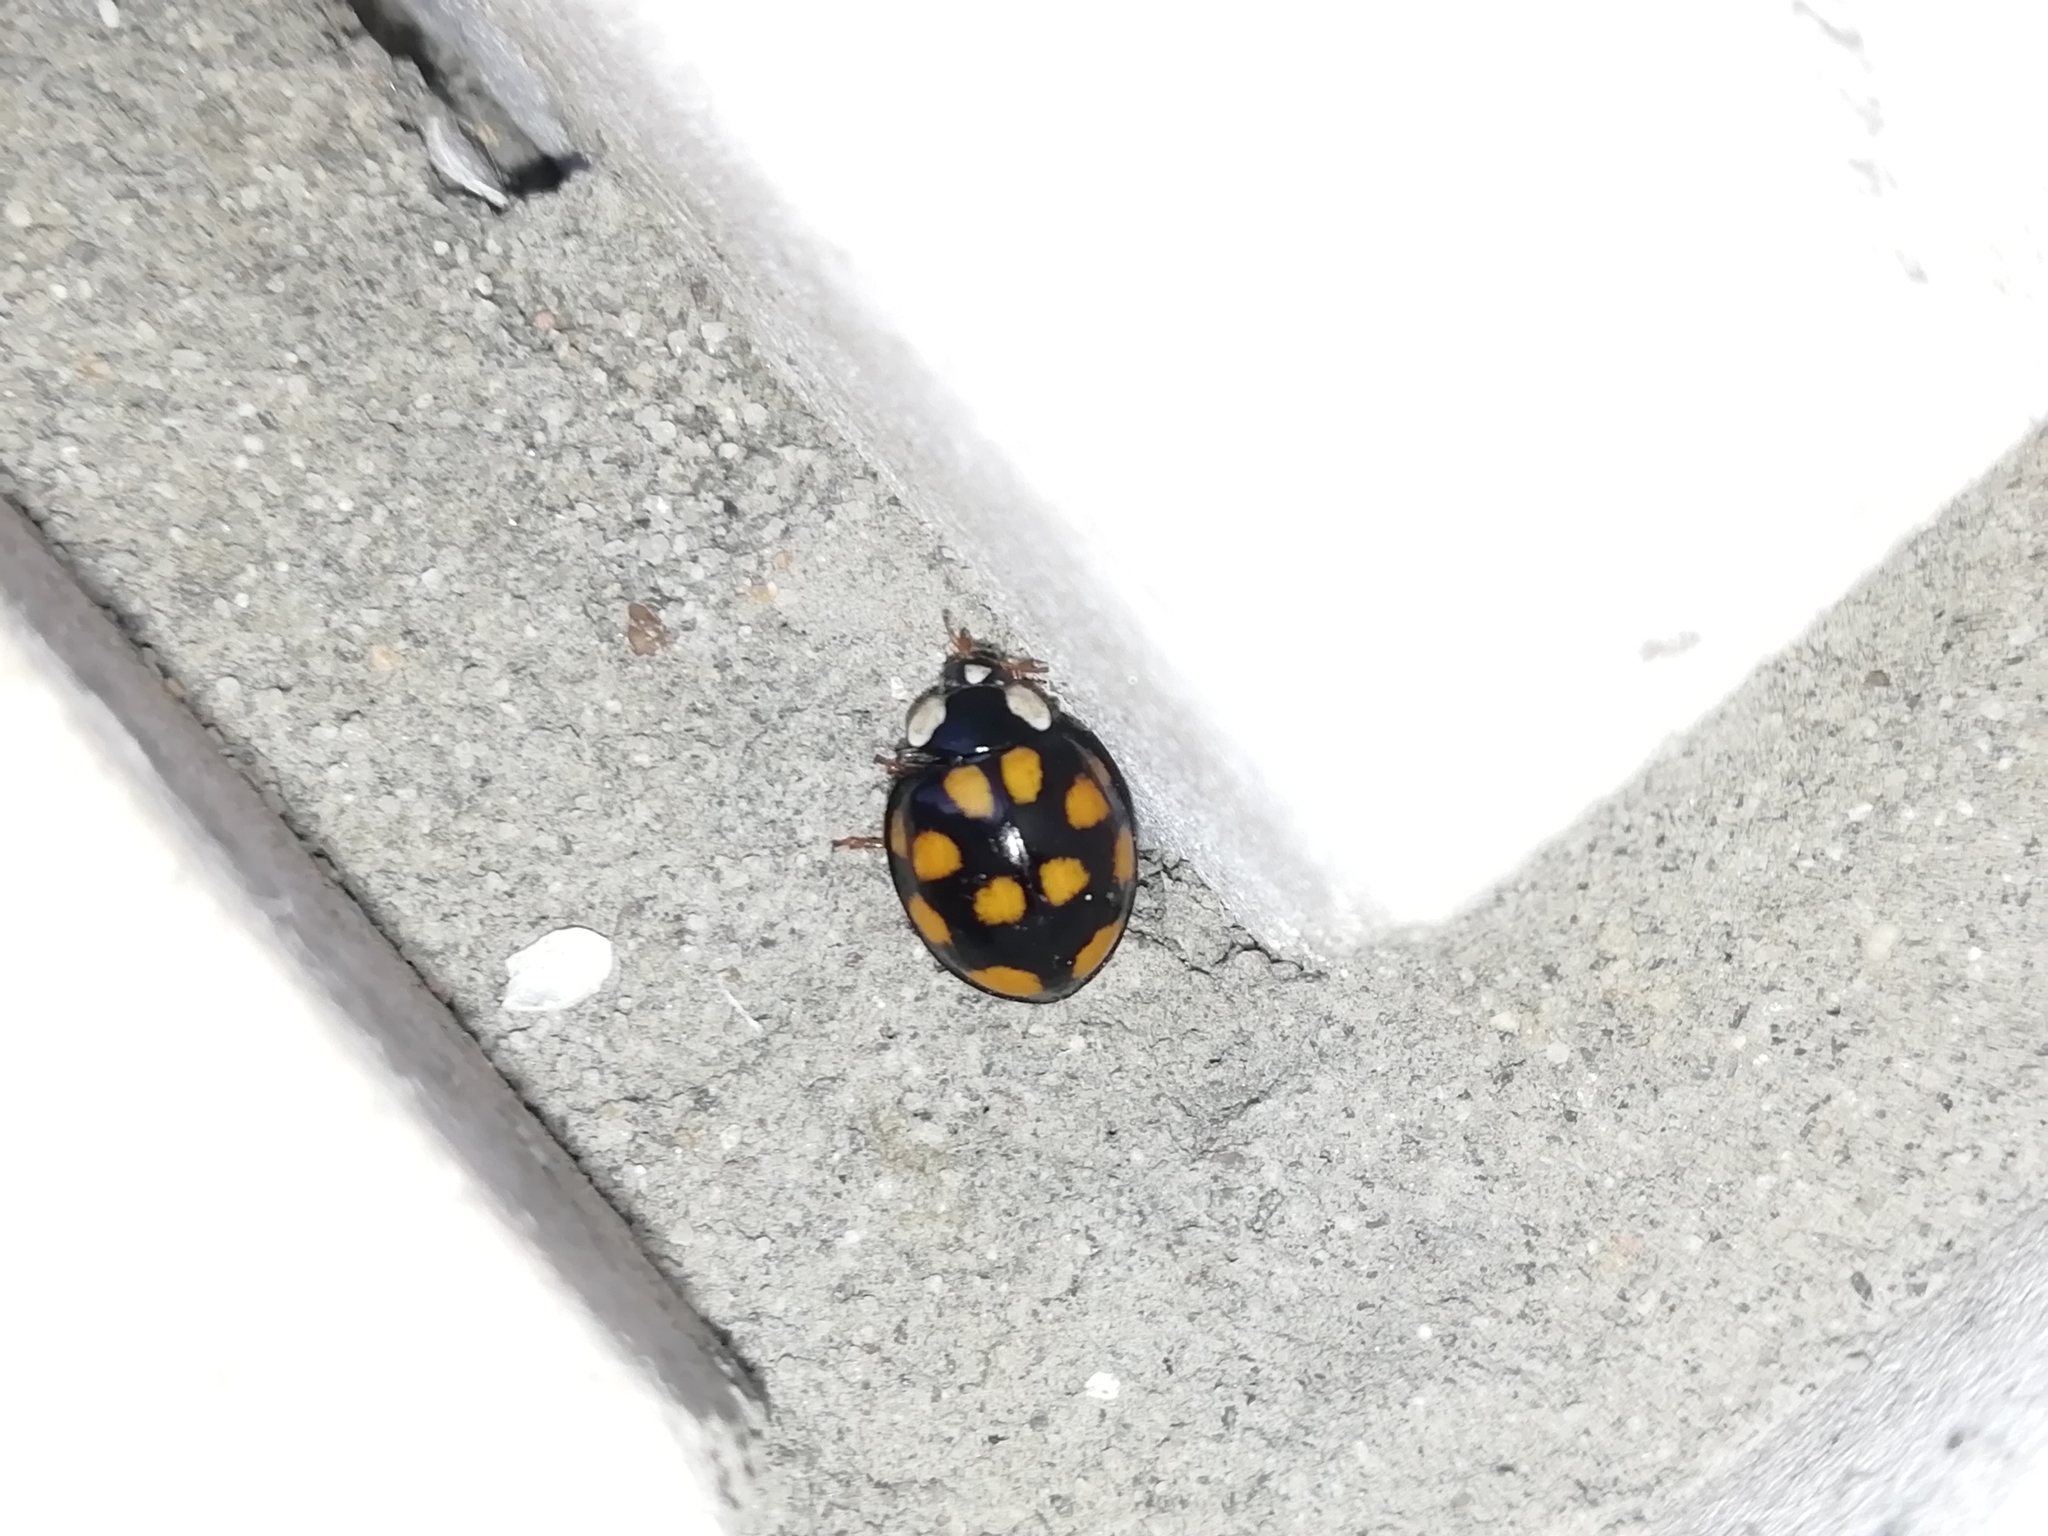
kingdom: Animalia
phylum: Arthropoda
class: Insecta
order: Coleoptera
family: Coccinellidae
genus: Harmonia
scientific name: Harmonia axyridis
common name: Harlequin ladybird
